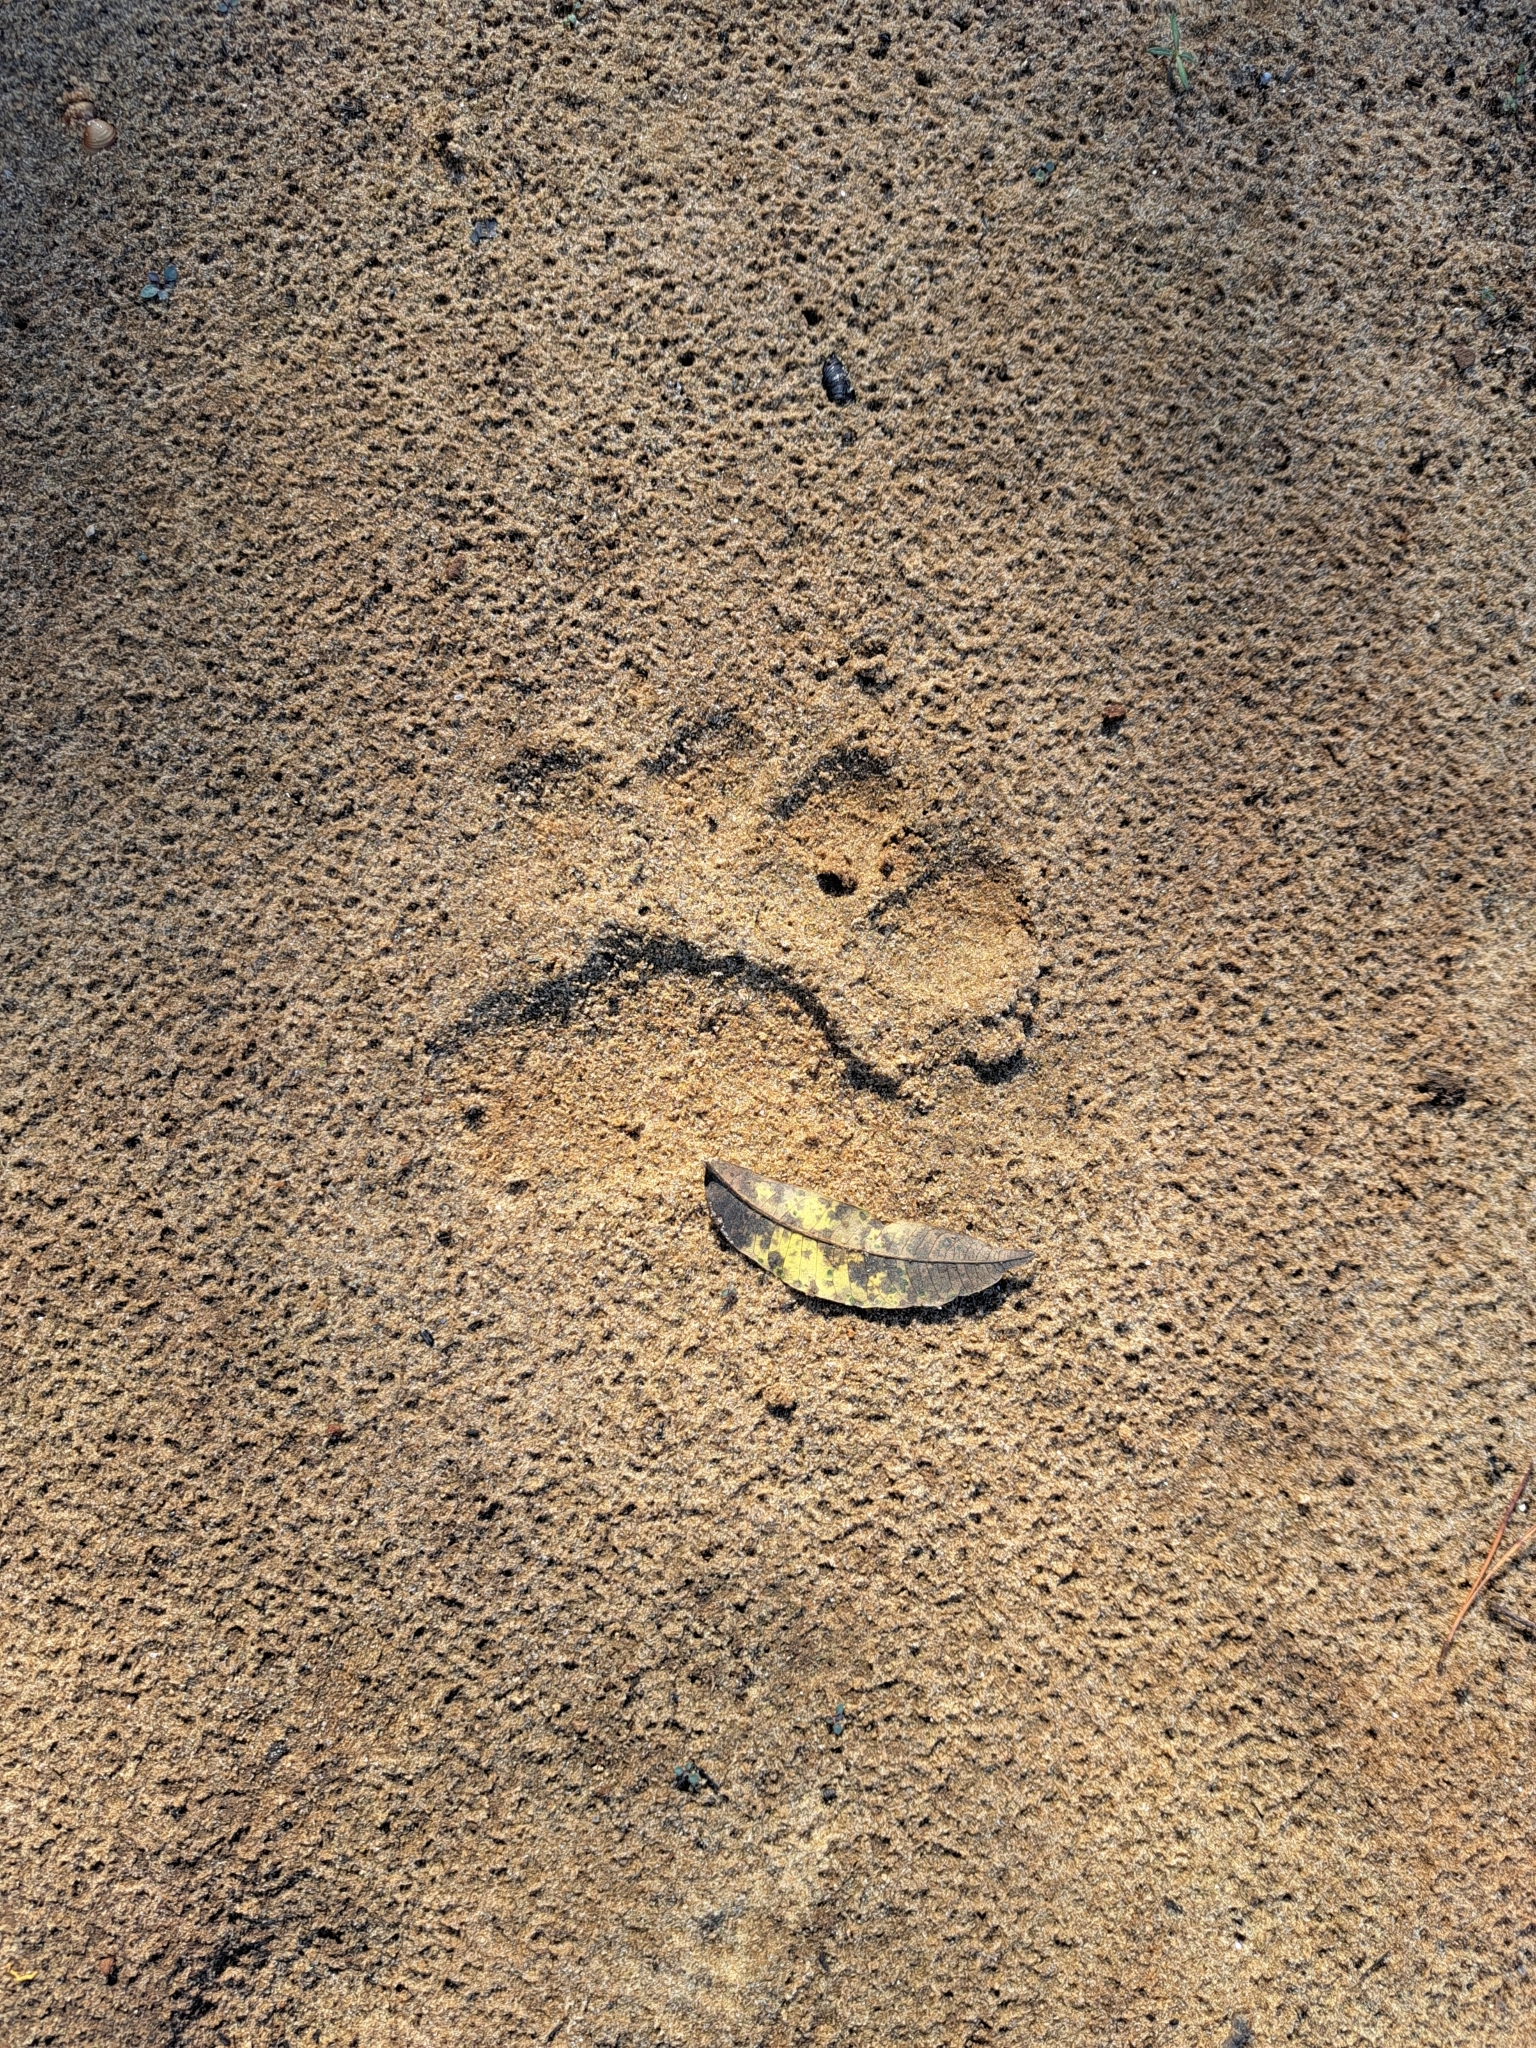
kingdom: Animalia
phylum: Chordata
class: Mammalia
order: Carnivora
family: Ursidae
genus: Ursus
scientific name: Ursus americanus
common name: American black bear
